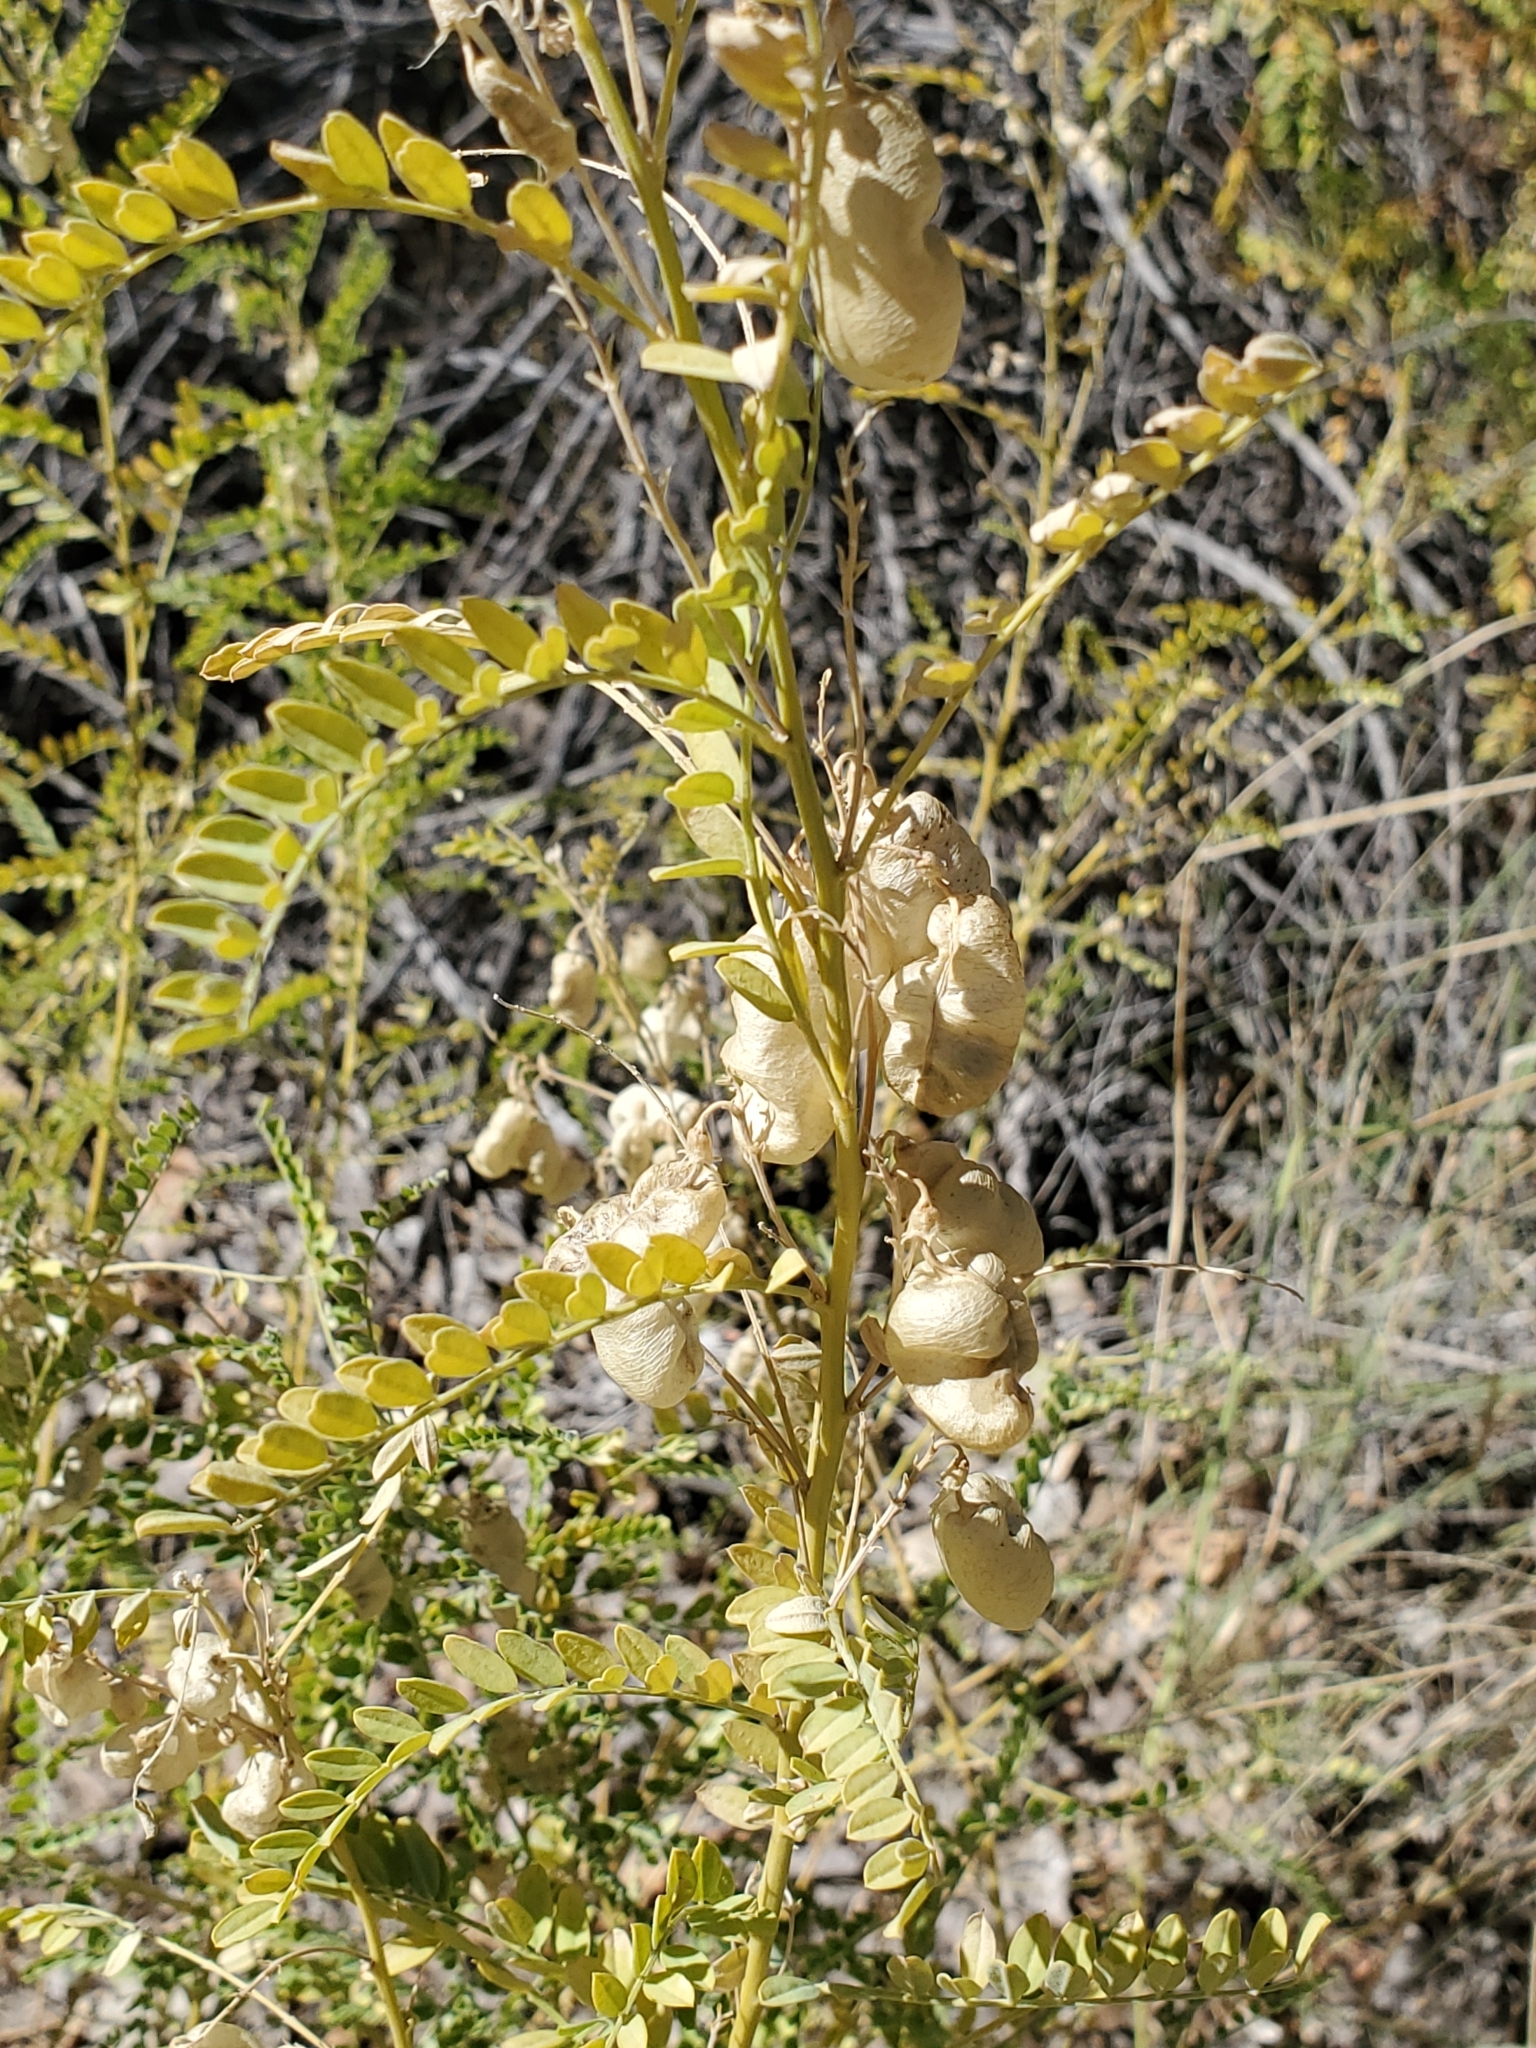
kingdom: Plantae
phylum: Tracheophyta
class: Magnoliopsida
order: Fabales
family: Fabaceae
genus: Sphaerophysa
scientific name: Sphaerophysa salsula
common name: Alkali swainsonpea
